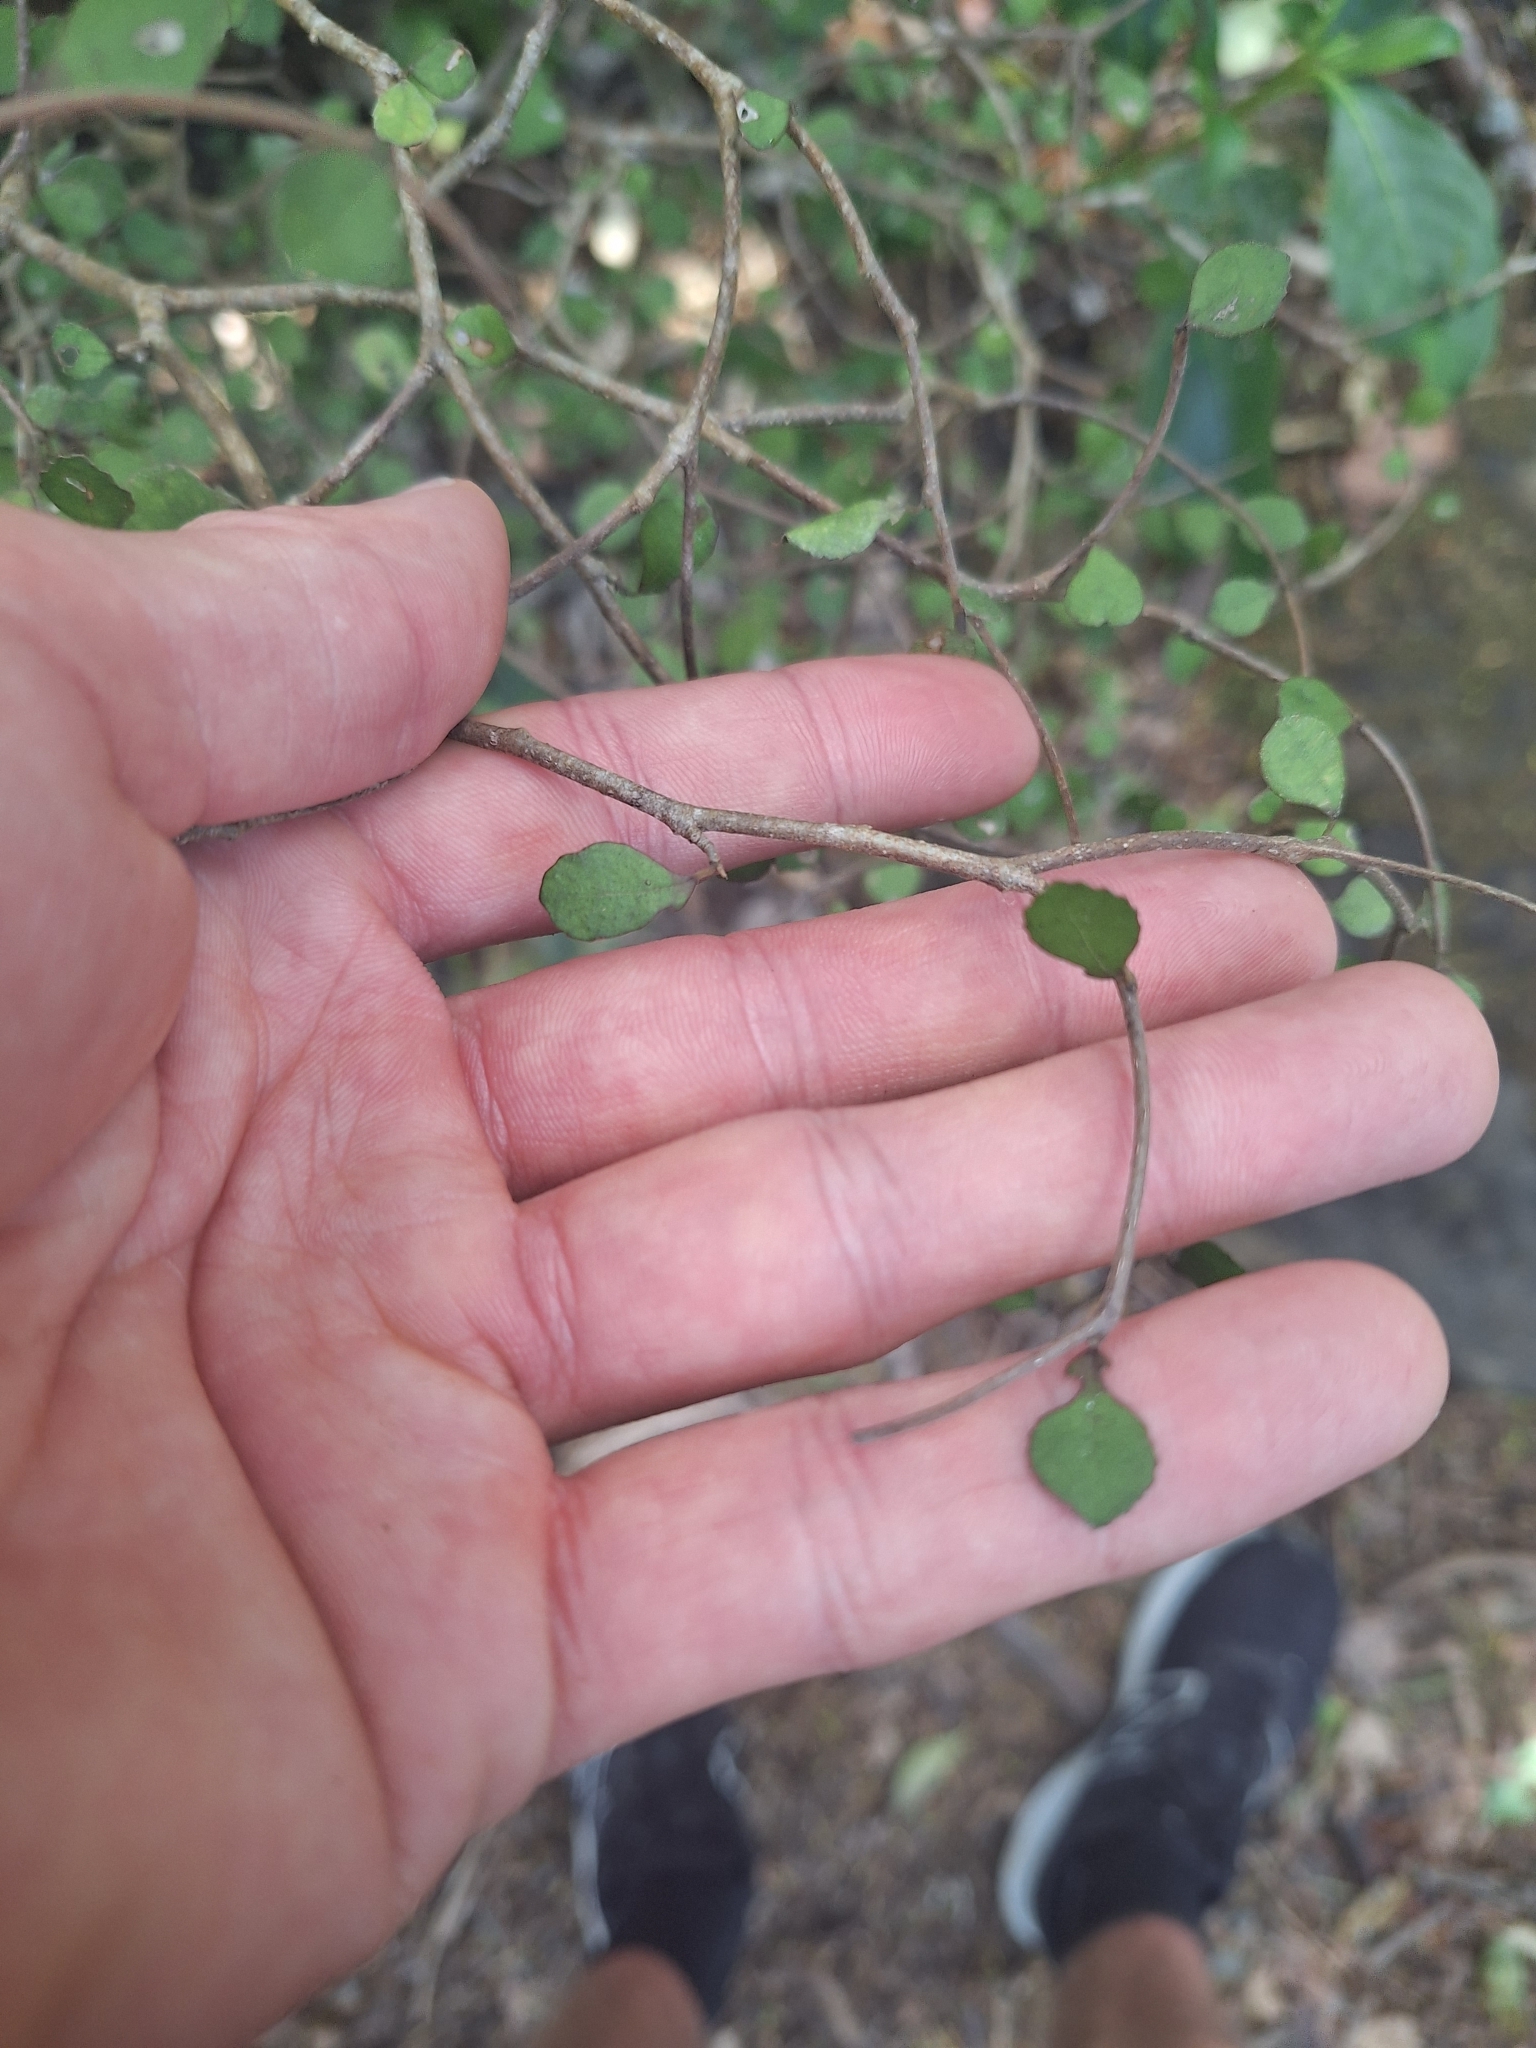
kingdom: Plantae
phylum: Tracheophyta
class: Magnoliopsida
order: Rosales
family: Moraceae
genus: Paratrophis
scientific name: Paratrophis microphylla
